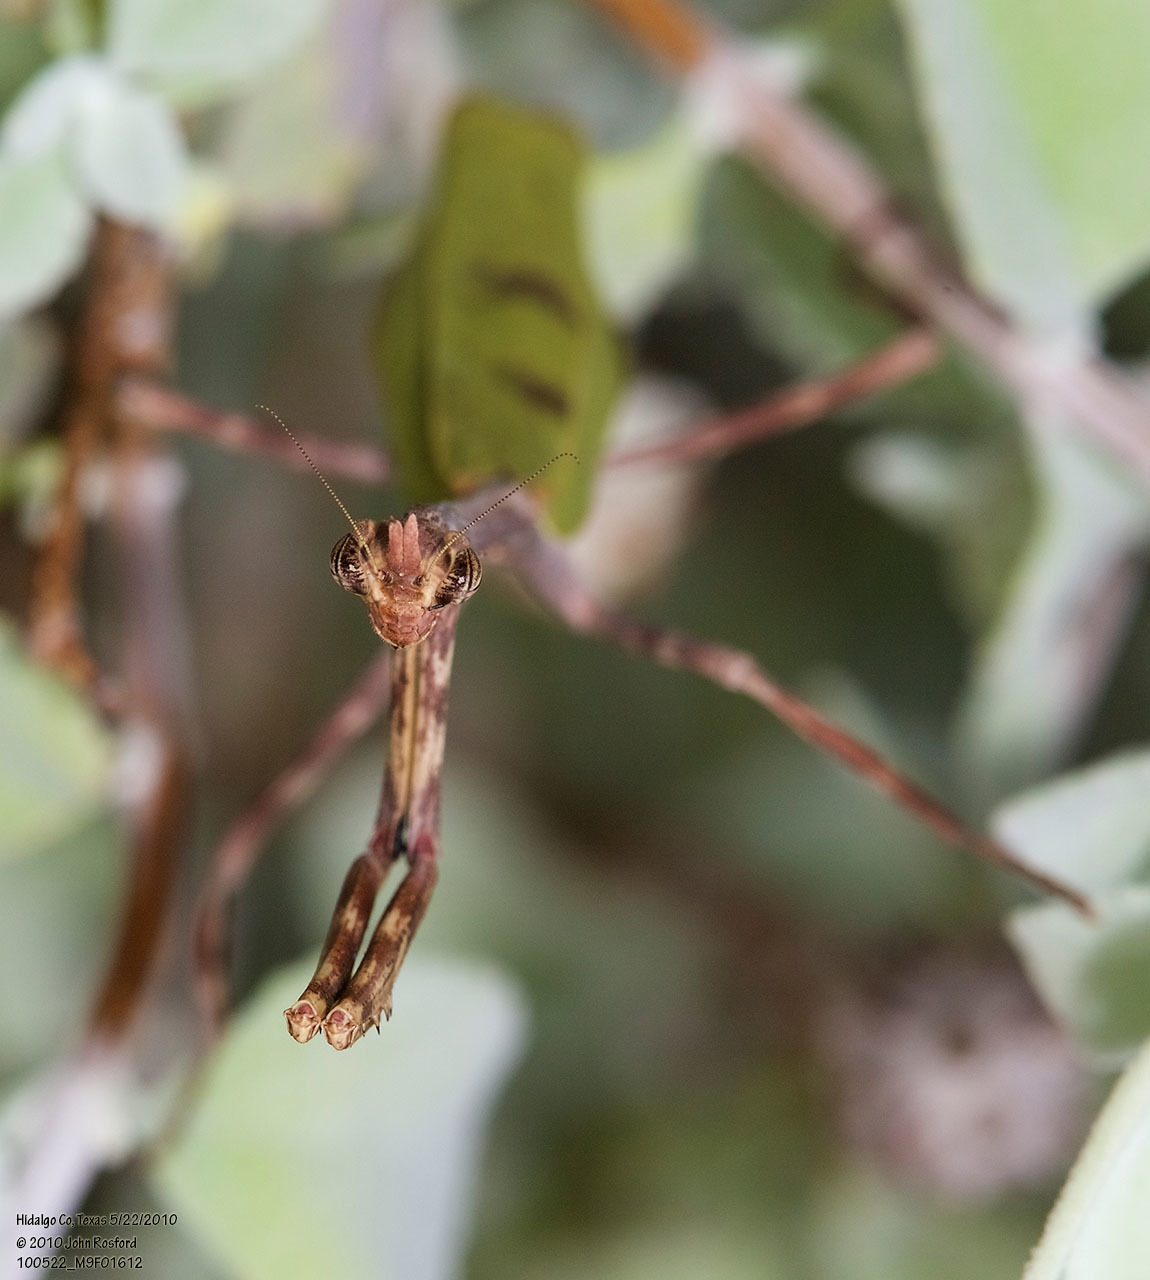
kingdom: Animalia
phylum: Arthropoda
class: Insecta
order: Mantodea
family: Mantidae
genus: Pseudovates
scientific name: Pseudovates chlorophaea
